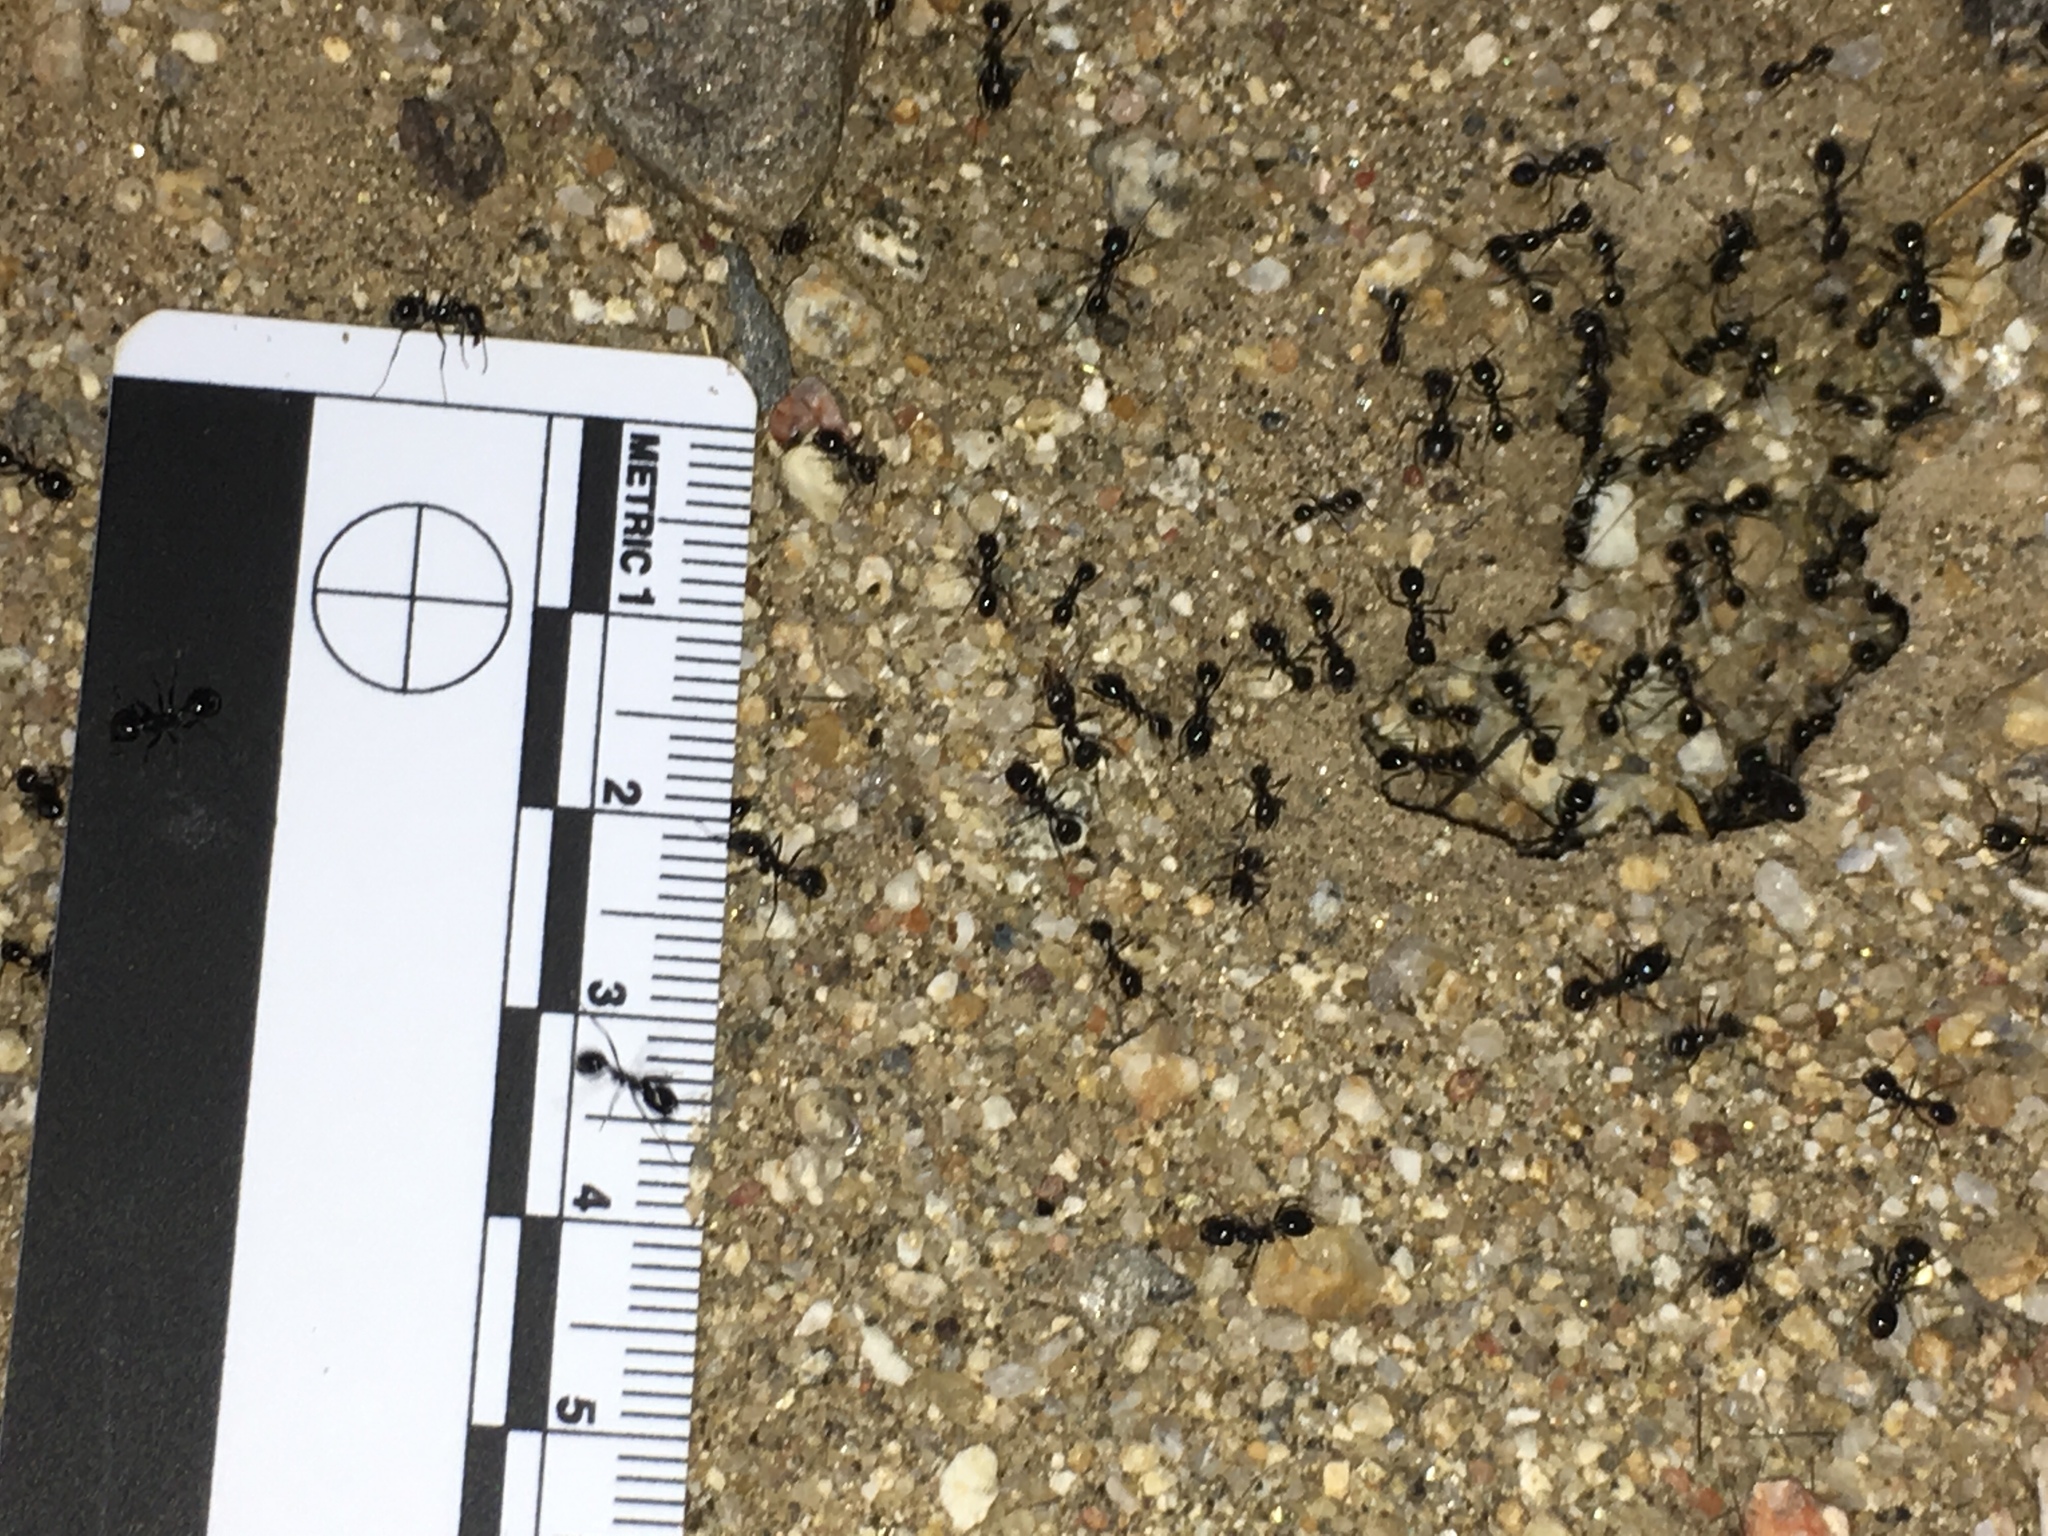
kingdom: Animalia
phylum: Arthropoda
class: Insecta
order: Hymenoptera
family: Formicidae
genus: Messor
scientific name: Messor pergandei
